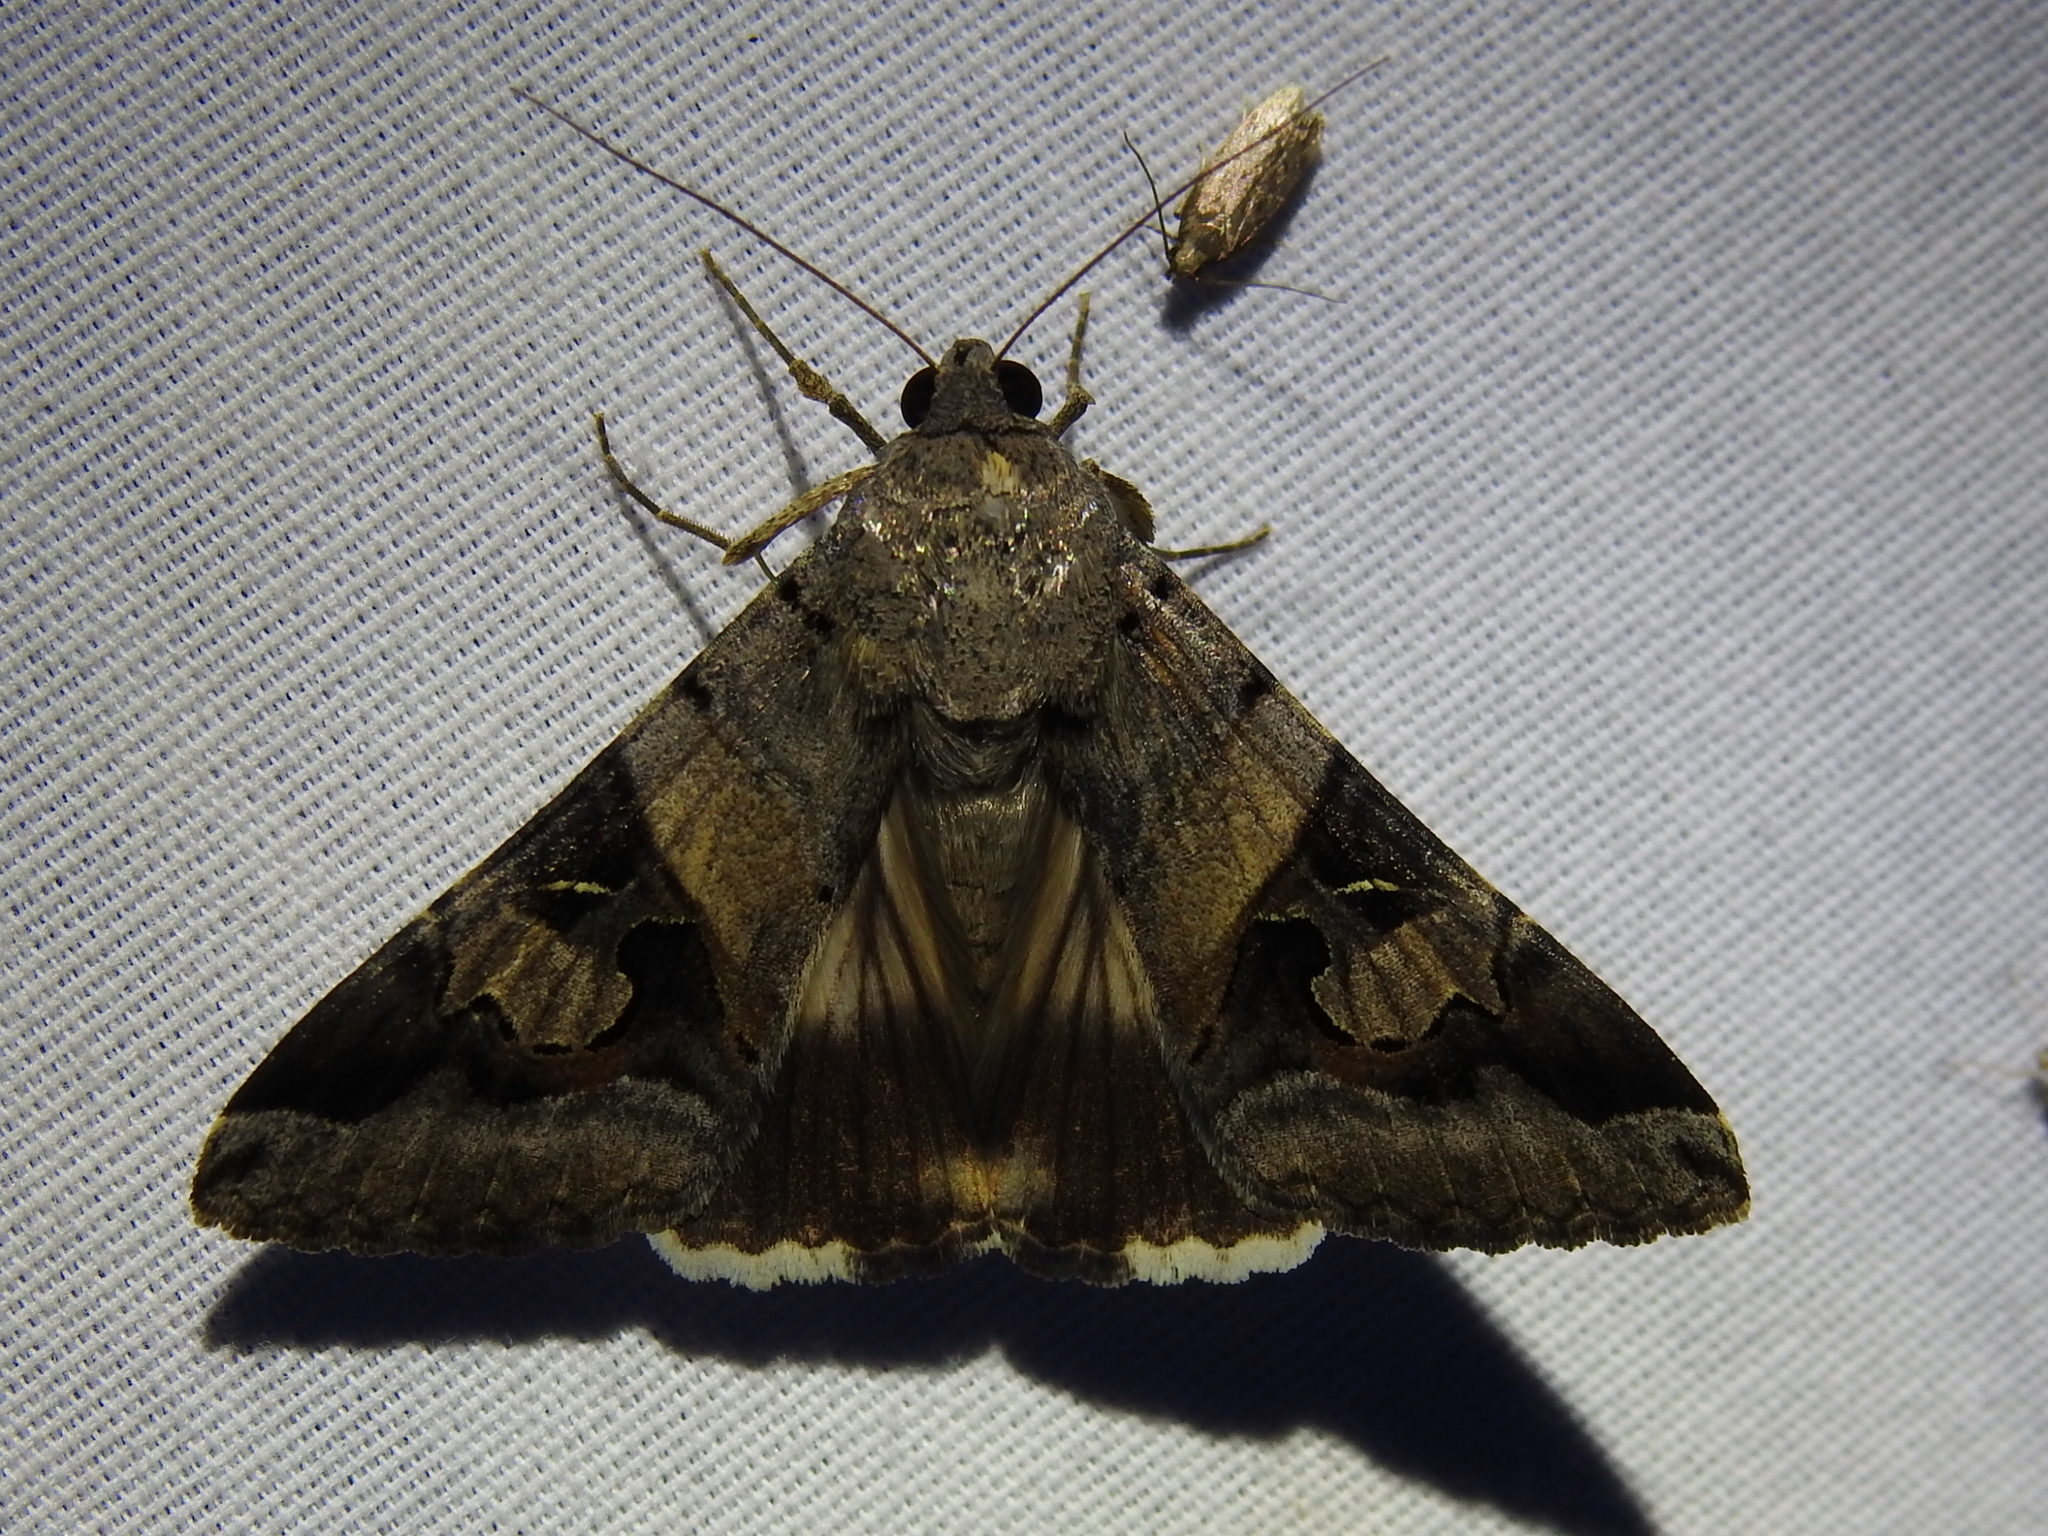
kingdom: Animalia
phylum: Arthropoda
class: Insecta
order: Lepidoptera
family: Erebidae
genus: Melipotis
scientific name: Melipotis indomita
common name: Moth
